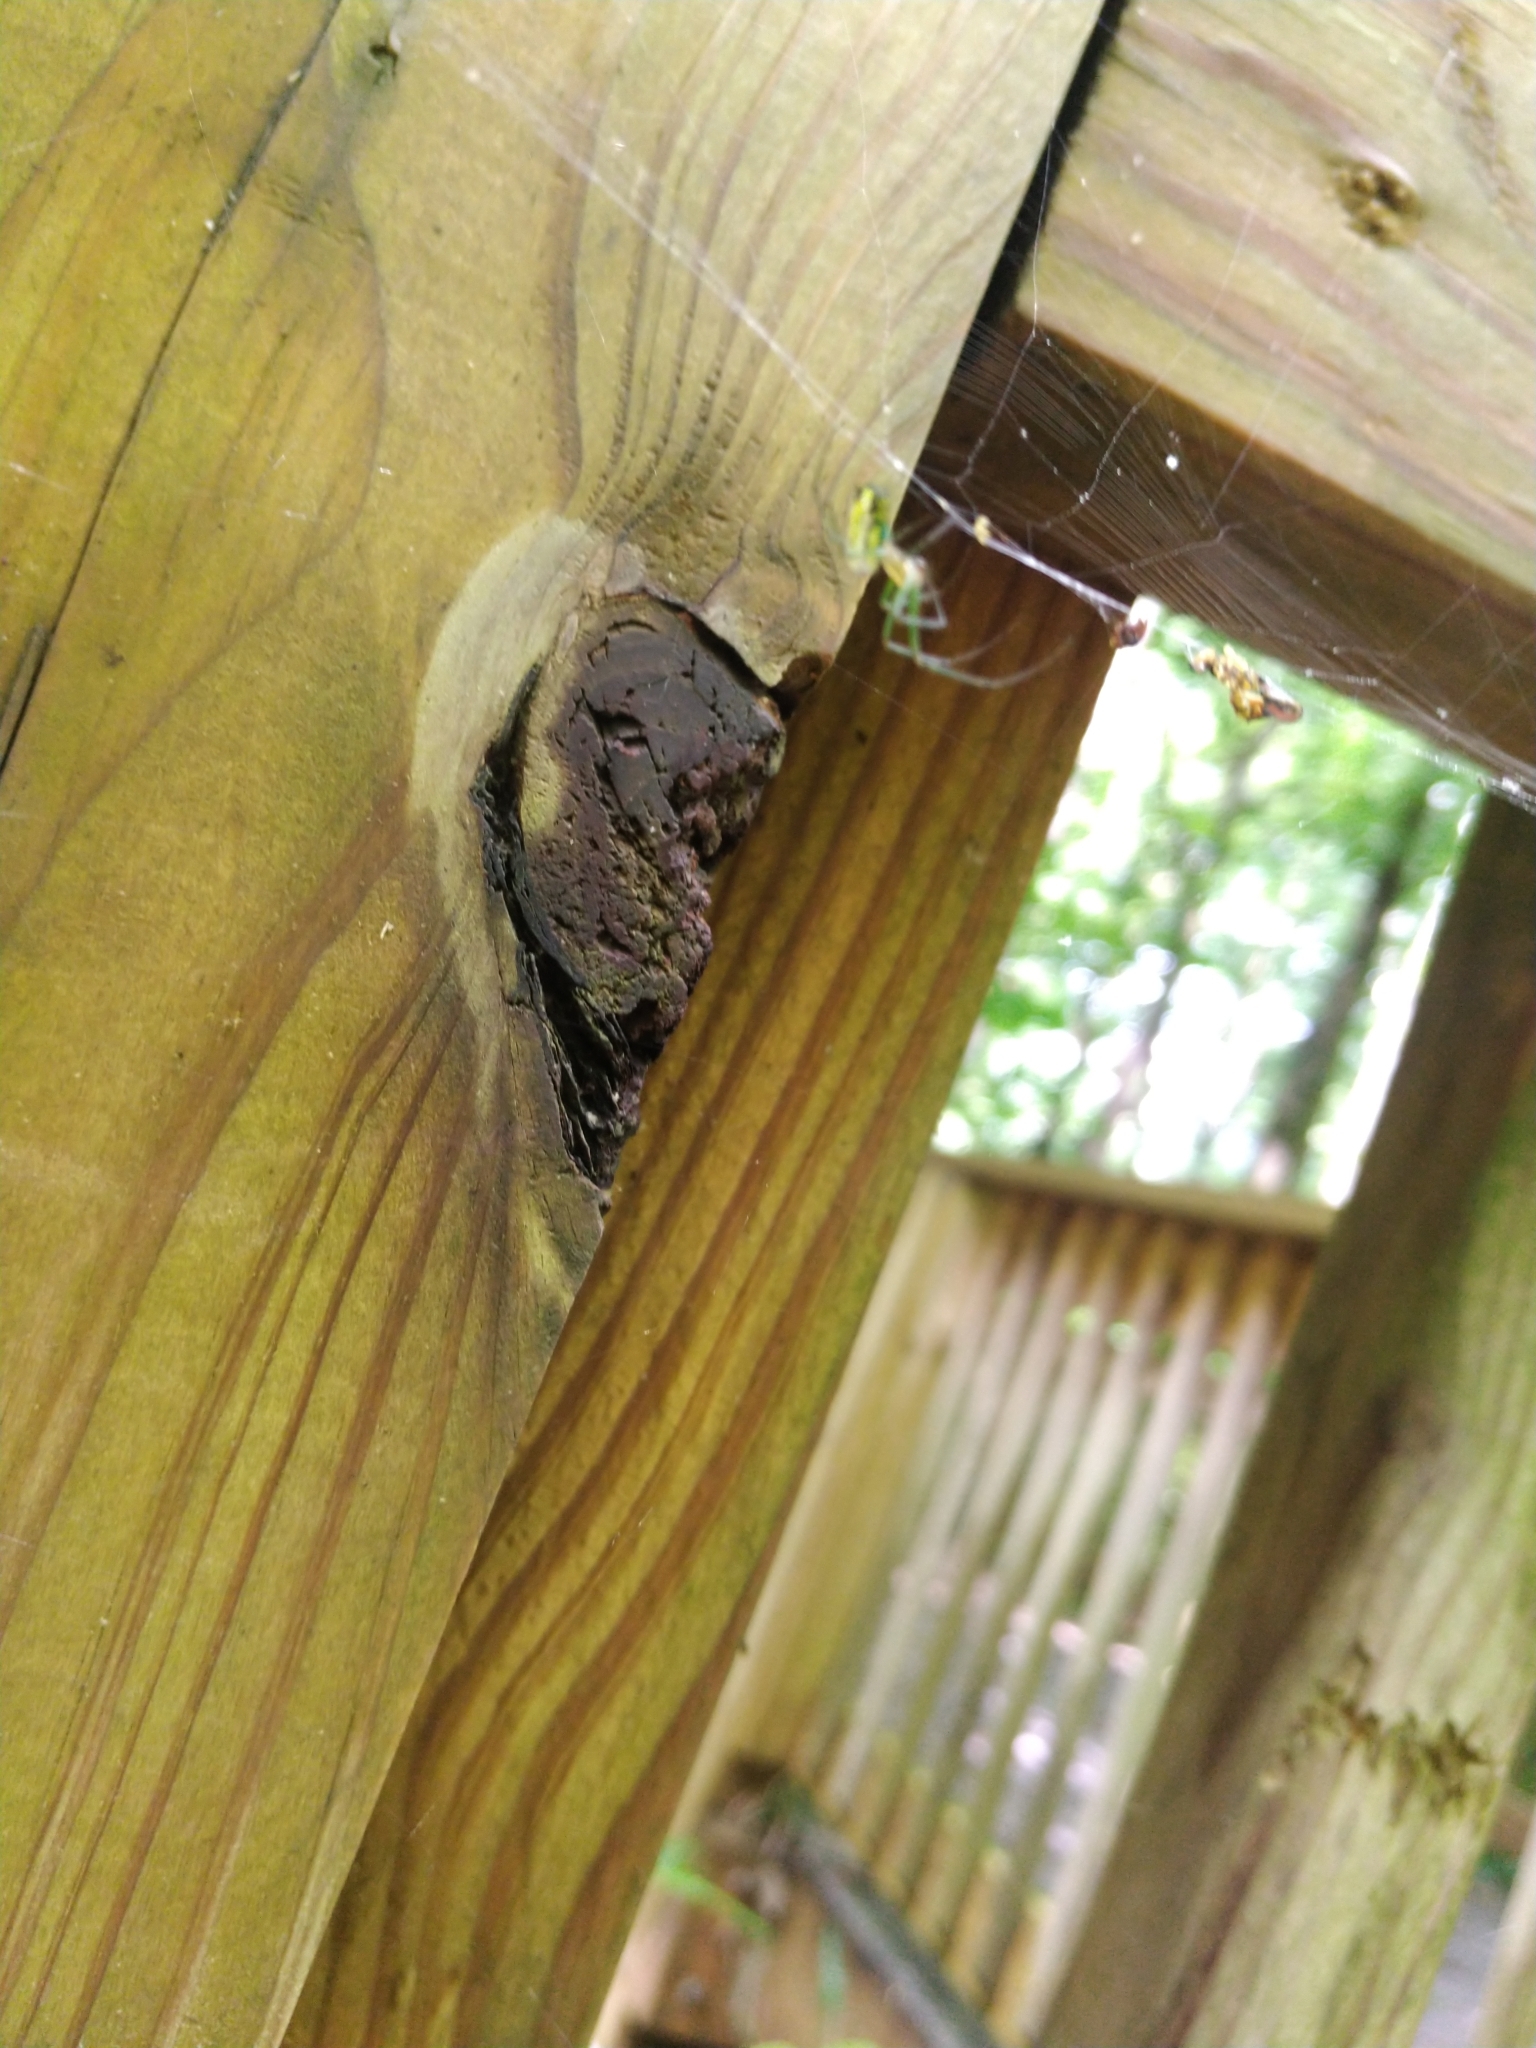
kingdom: Animalia
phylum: Arthropoda
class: Arachnida
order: Araneae
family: Tetragnathidae
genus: Leucauge
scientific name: Leucauge venusta
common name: Longjawed orb weavers
